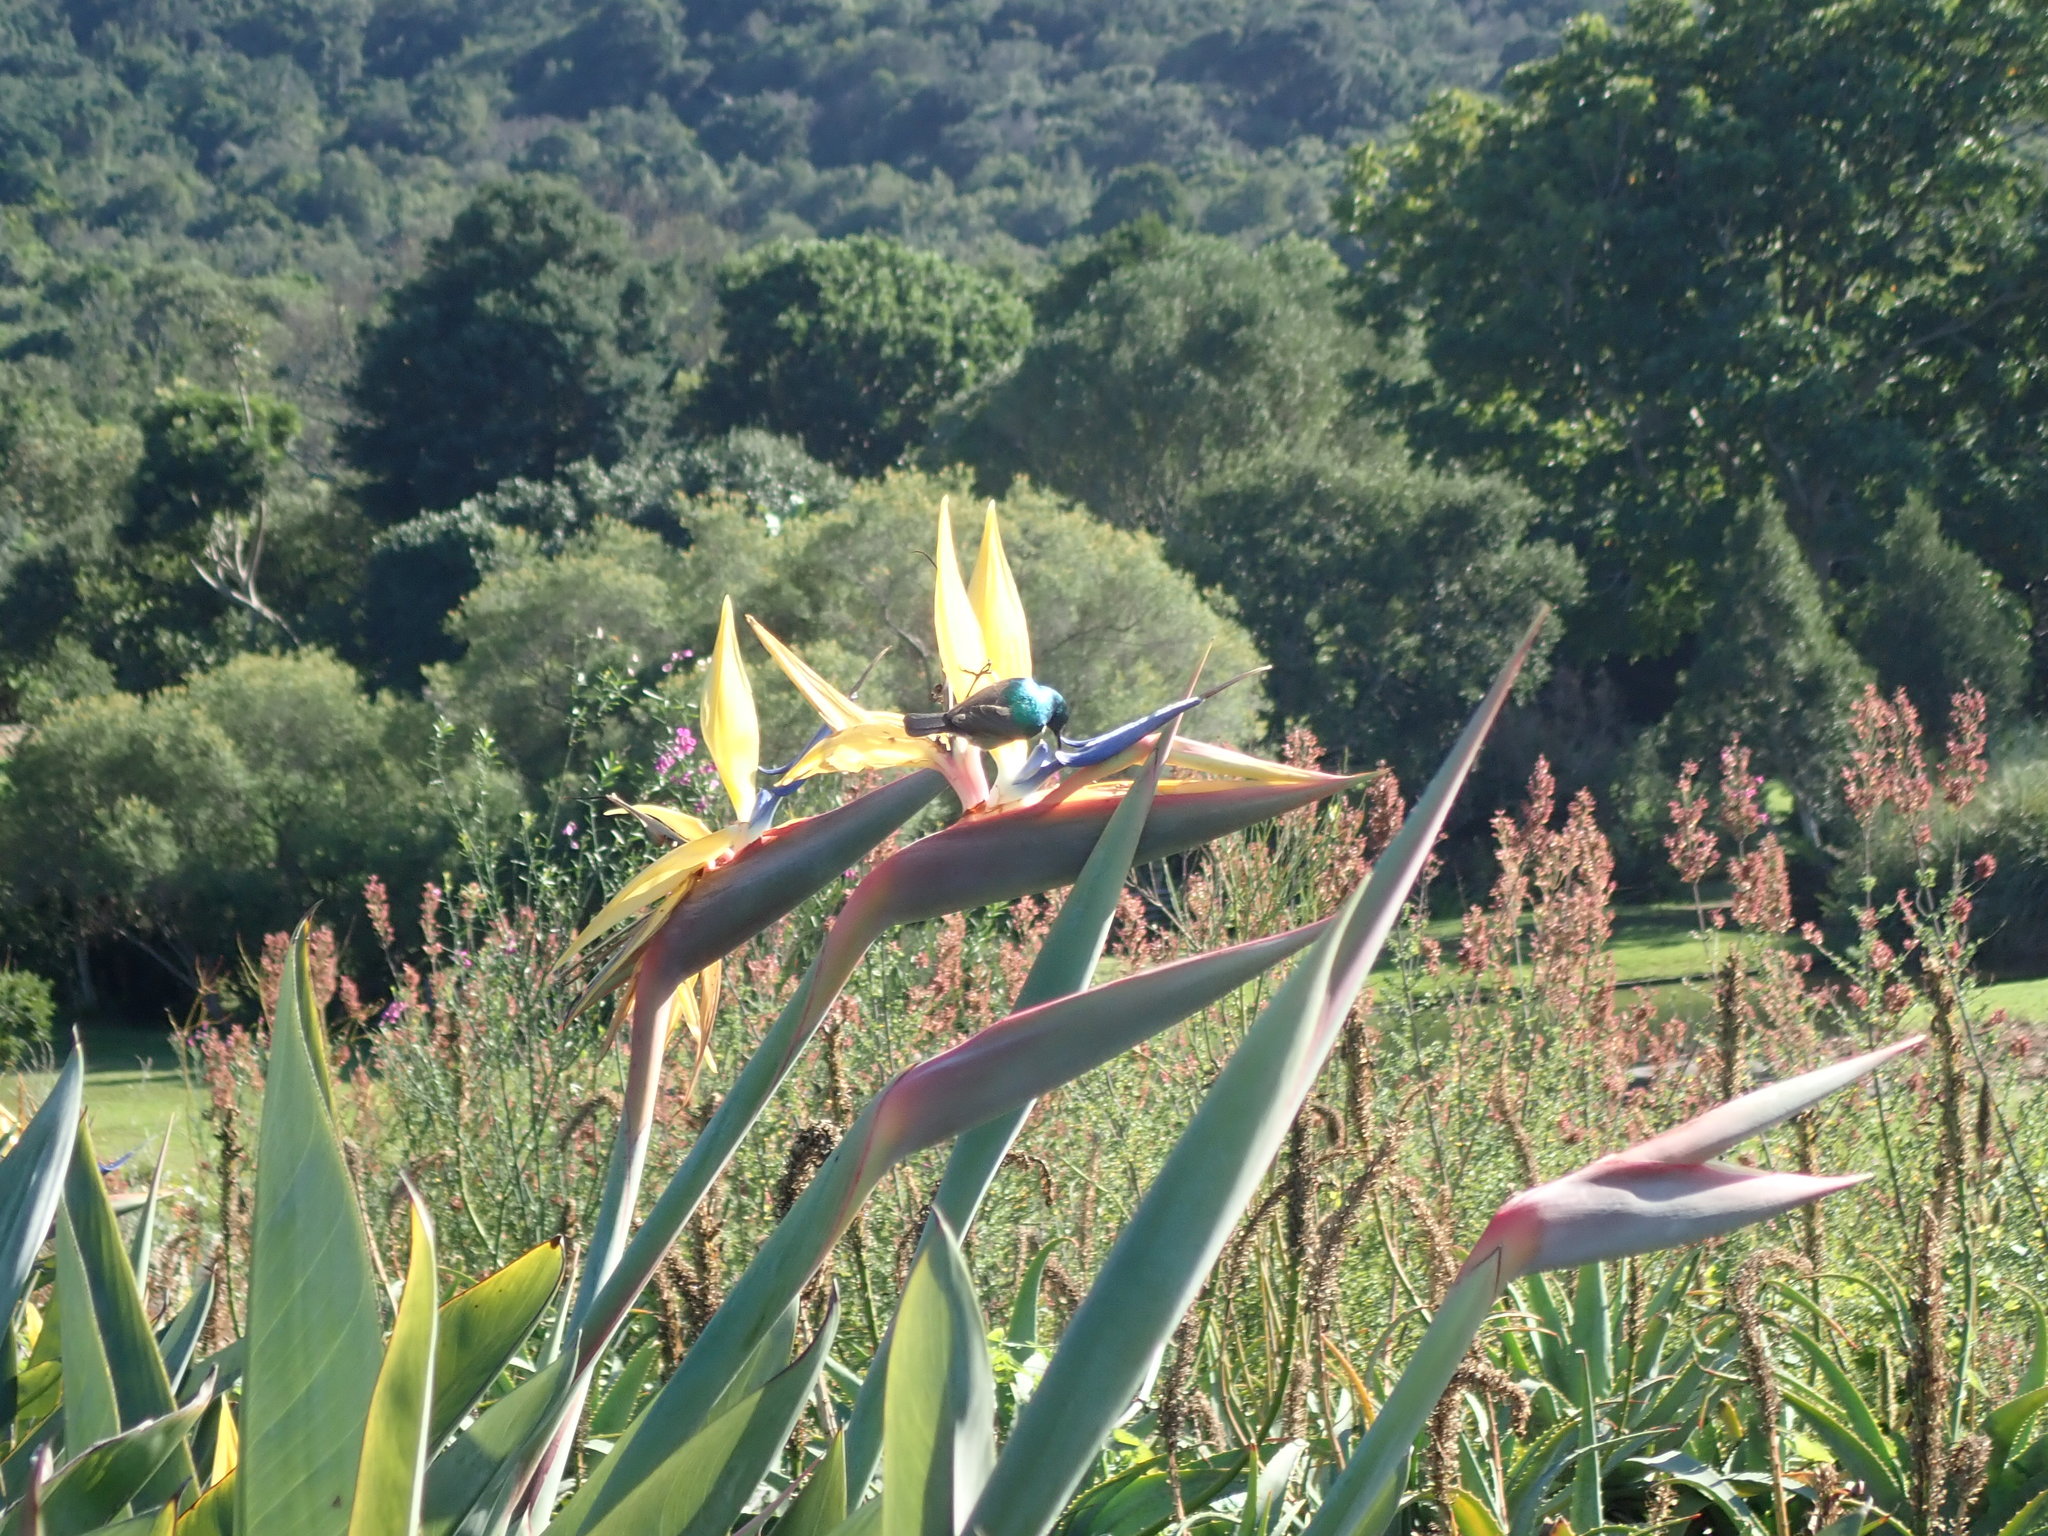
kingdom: Animalia
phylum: Chordata
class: Aves
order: Passeriformes
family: Nectariniidae
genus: Cinnyris
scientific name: Cinnyris chalybeus
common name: Southern double-collared sunbird
